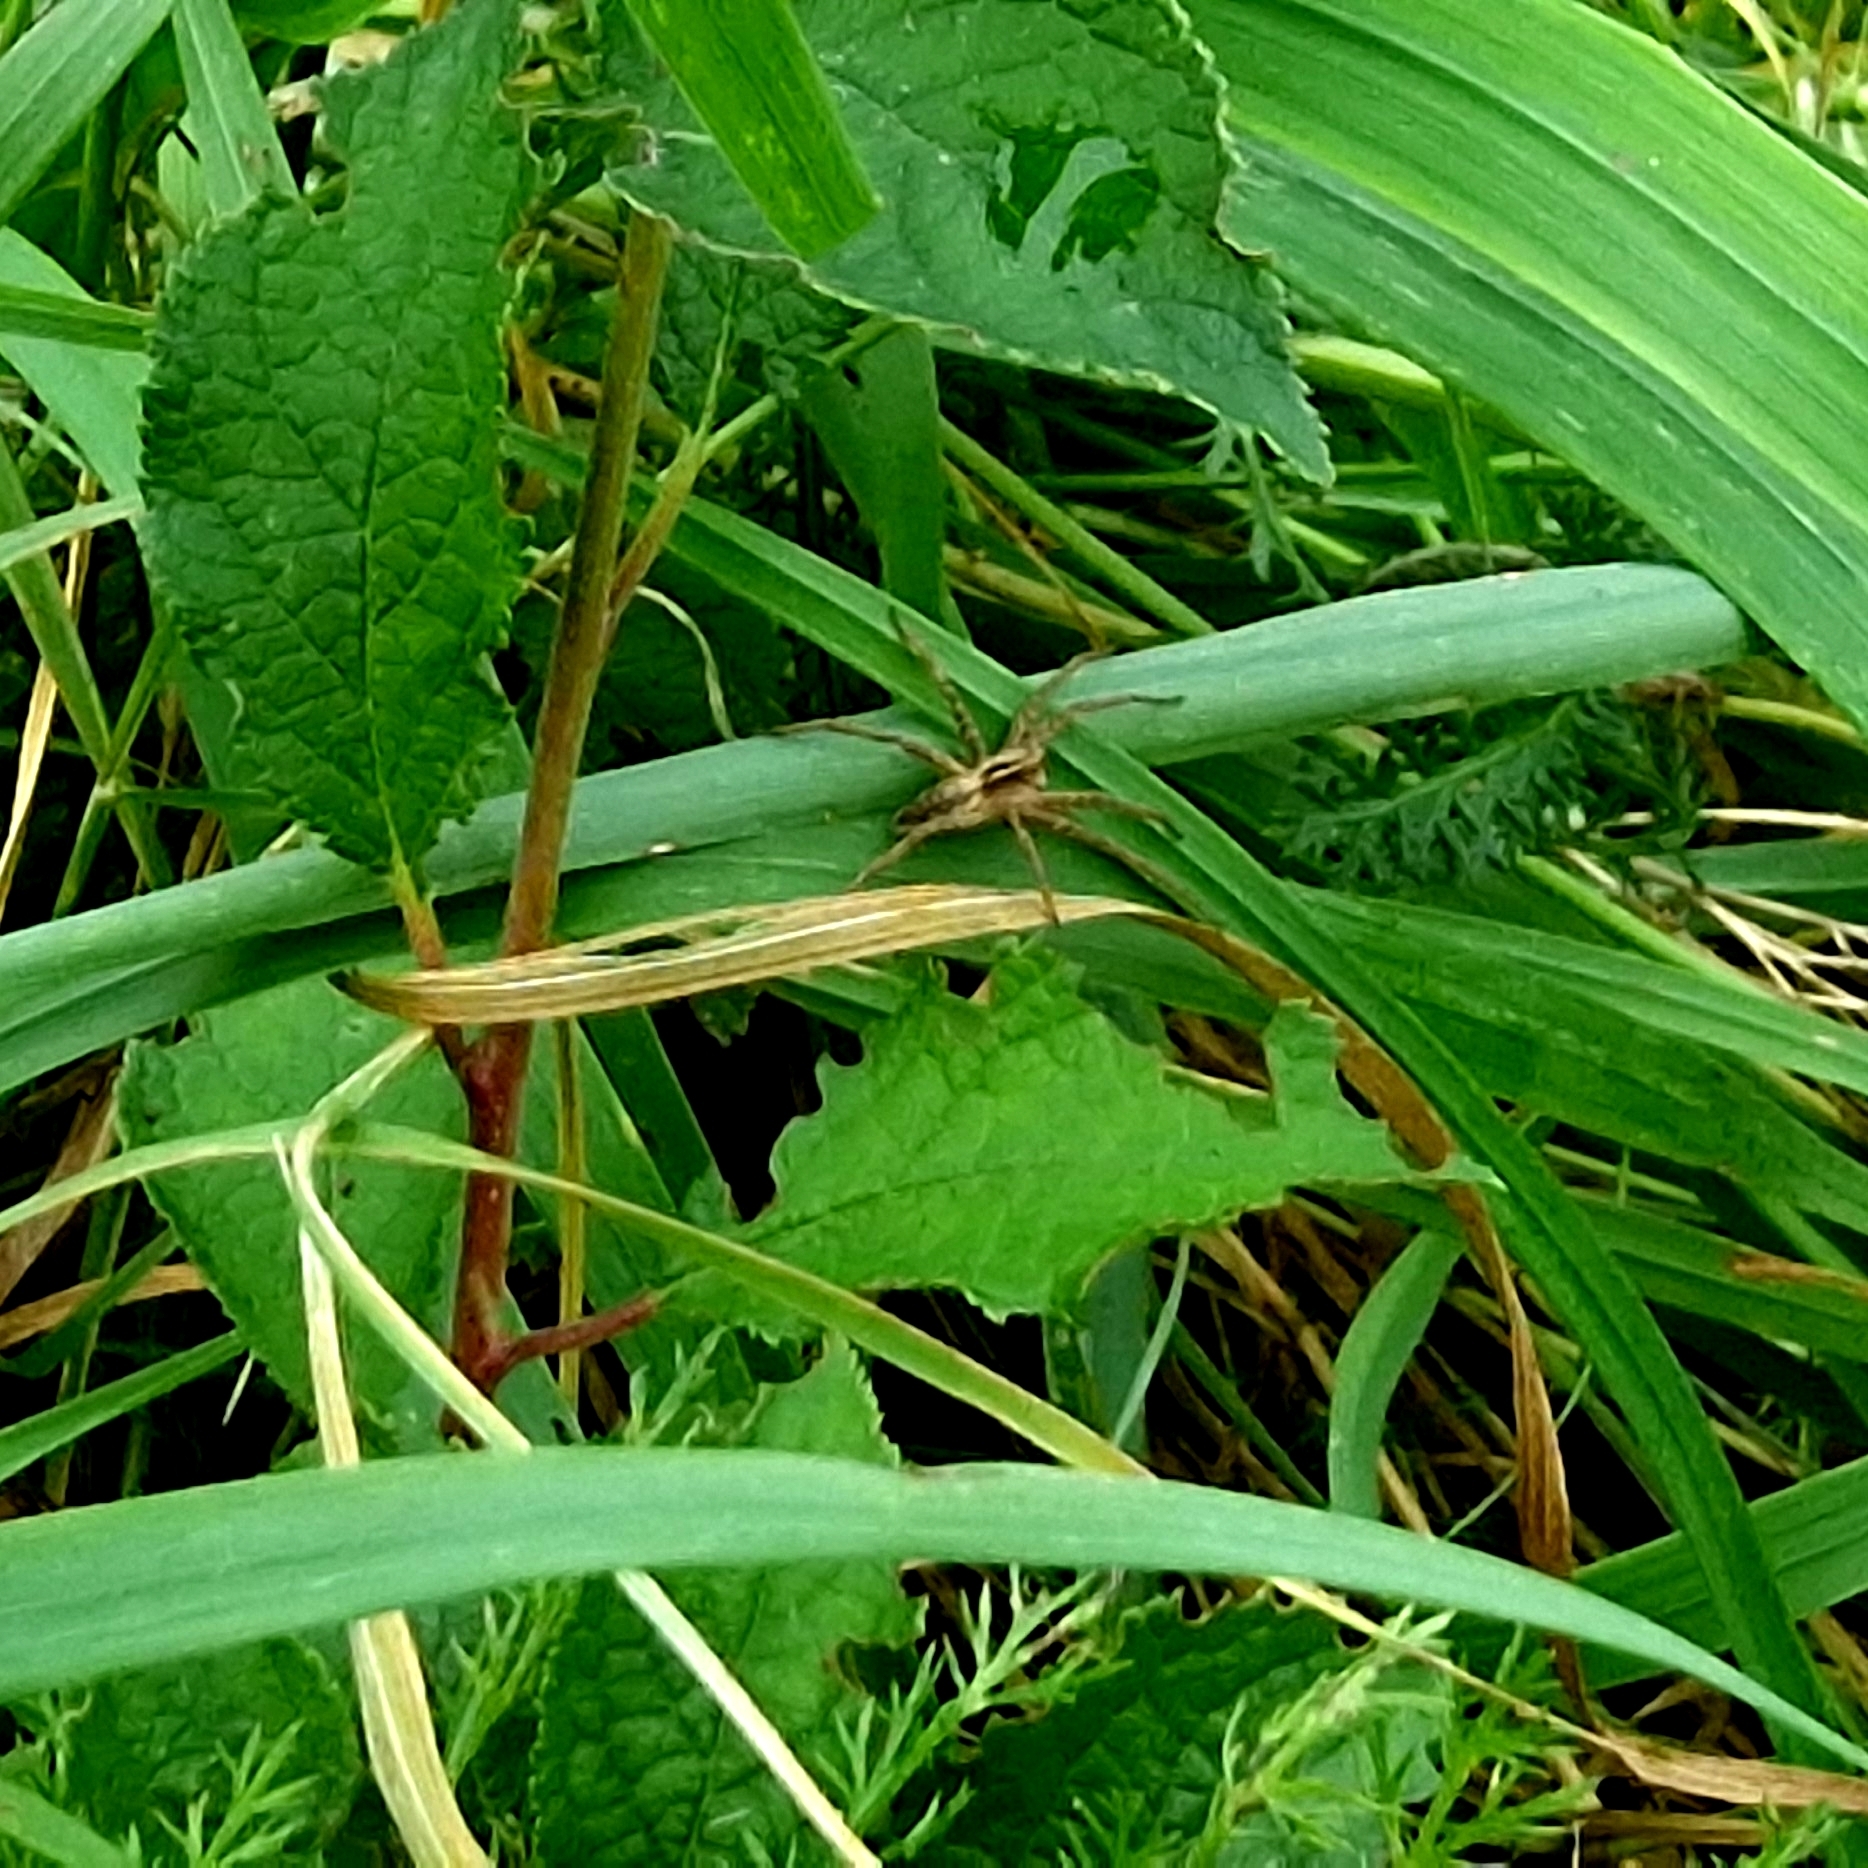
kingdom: Animalia
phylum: Arthropoda
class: Arachnida
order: Araneae
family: Pisauridae
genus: Pisaura
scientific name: Pisaura mirabilis
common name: Tent spider
